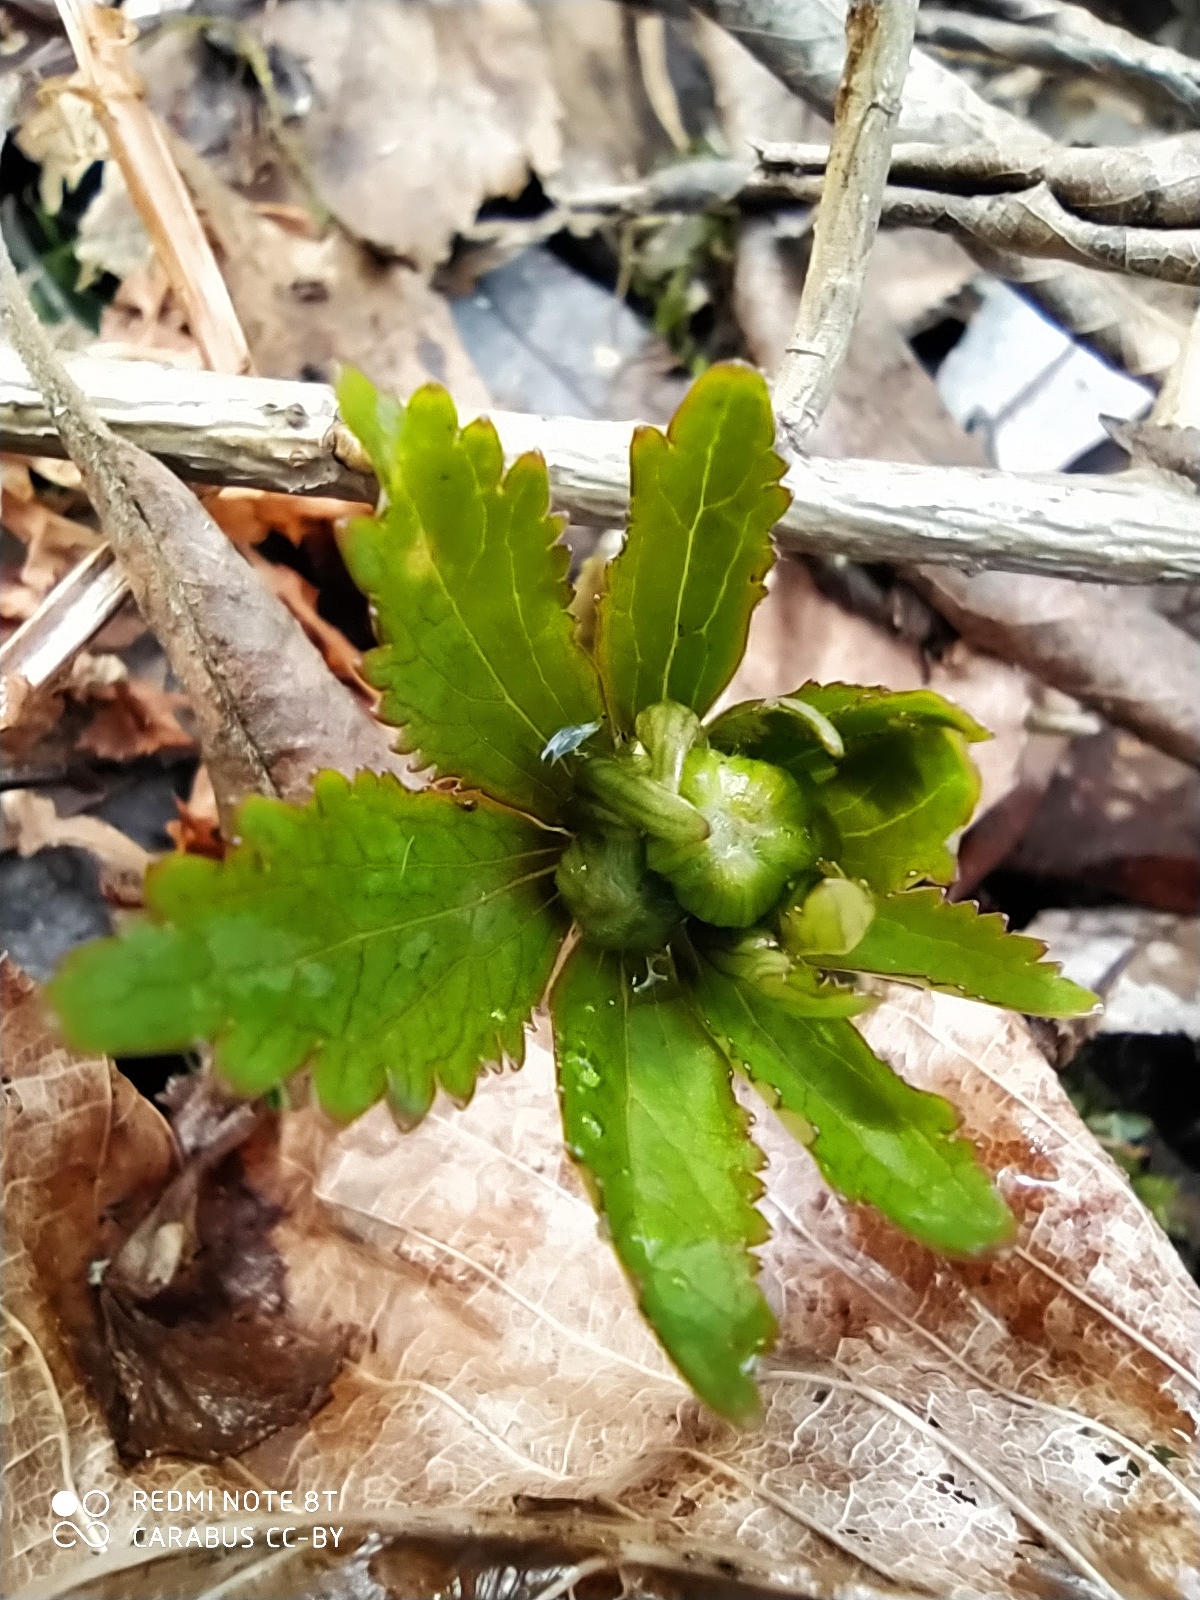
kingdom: Plantae
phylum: Tracheophyta
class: Magnoliopsida
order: Ranunculales
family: Ranunculaceae
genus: Ranunculus
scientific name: Ranunculus cassubicus
